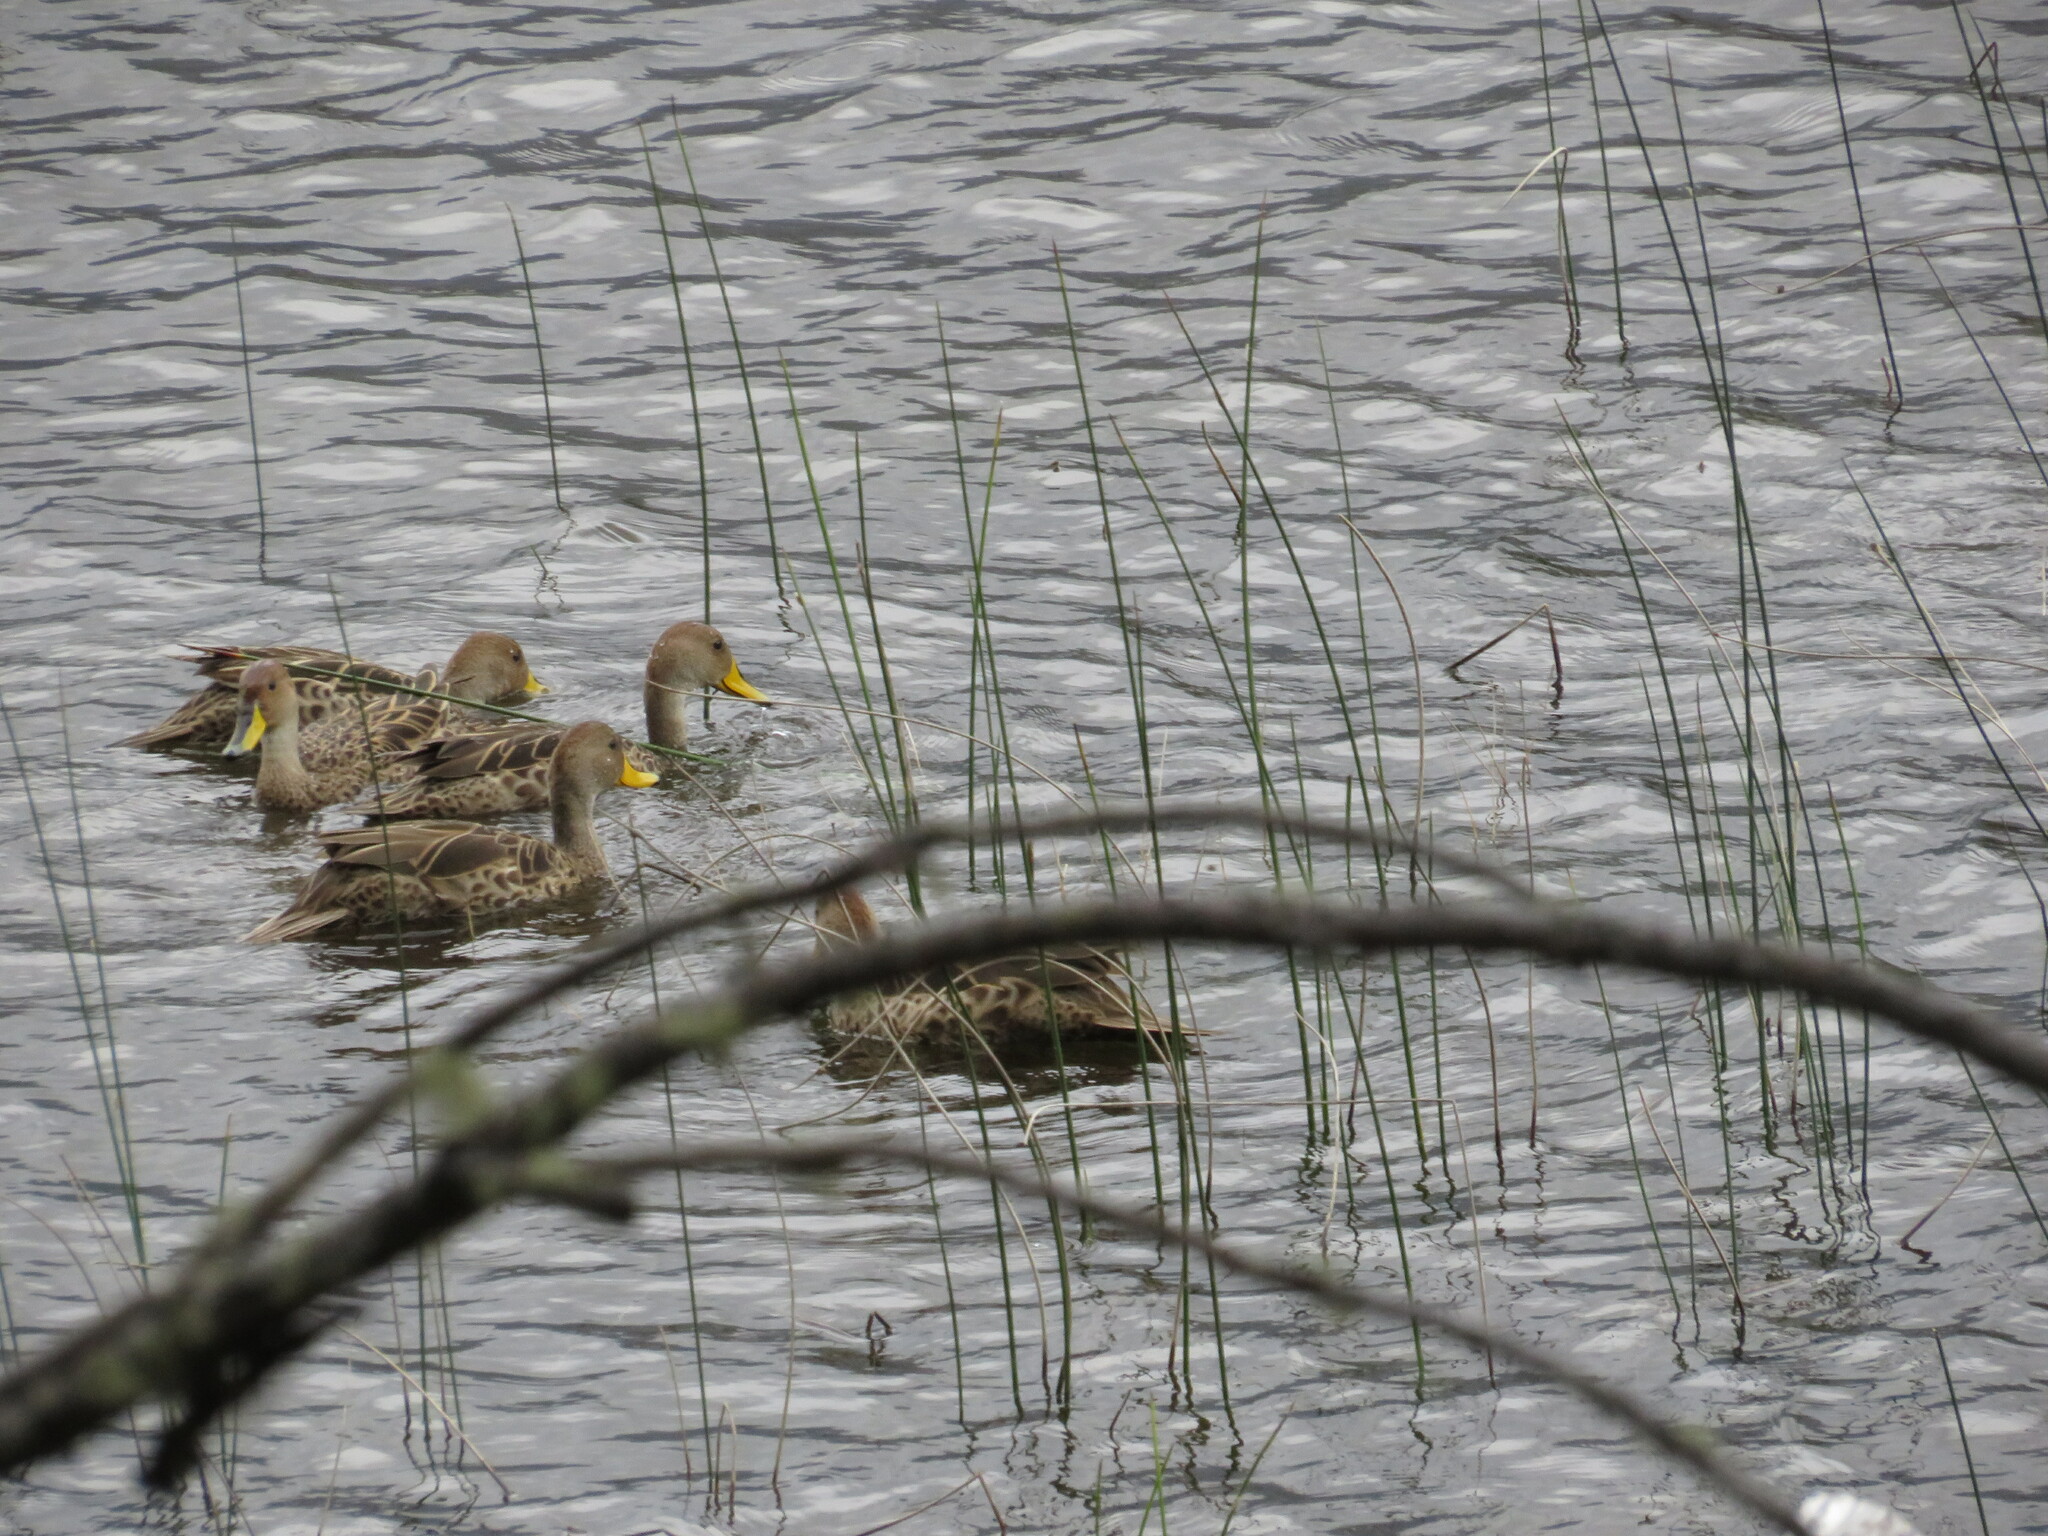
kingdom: Animalia
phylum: Chordata
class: Aves
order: Anseriformes
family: Anatidae
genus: Anas
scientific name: Anas georgica
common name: Yellow-billed pintail
